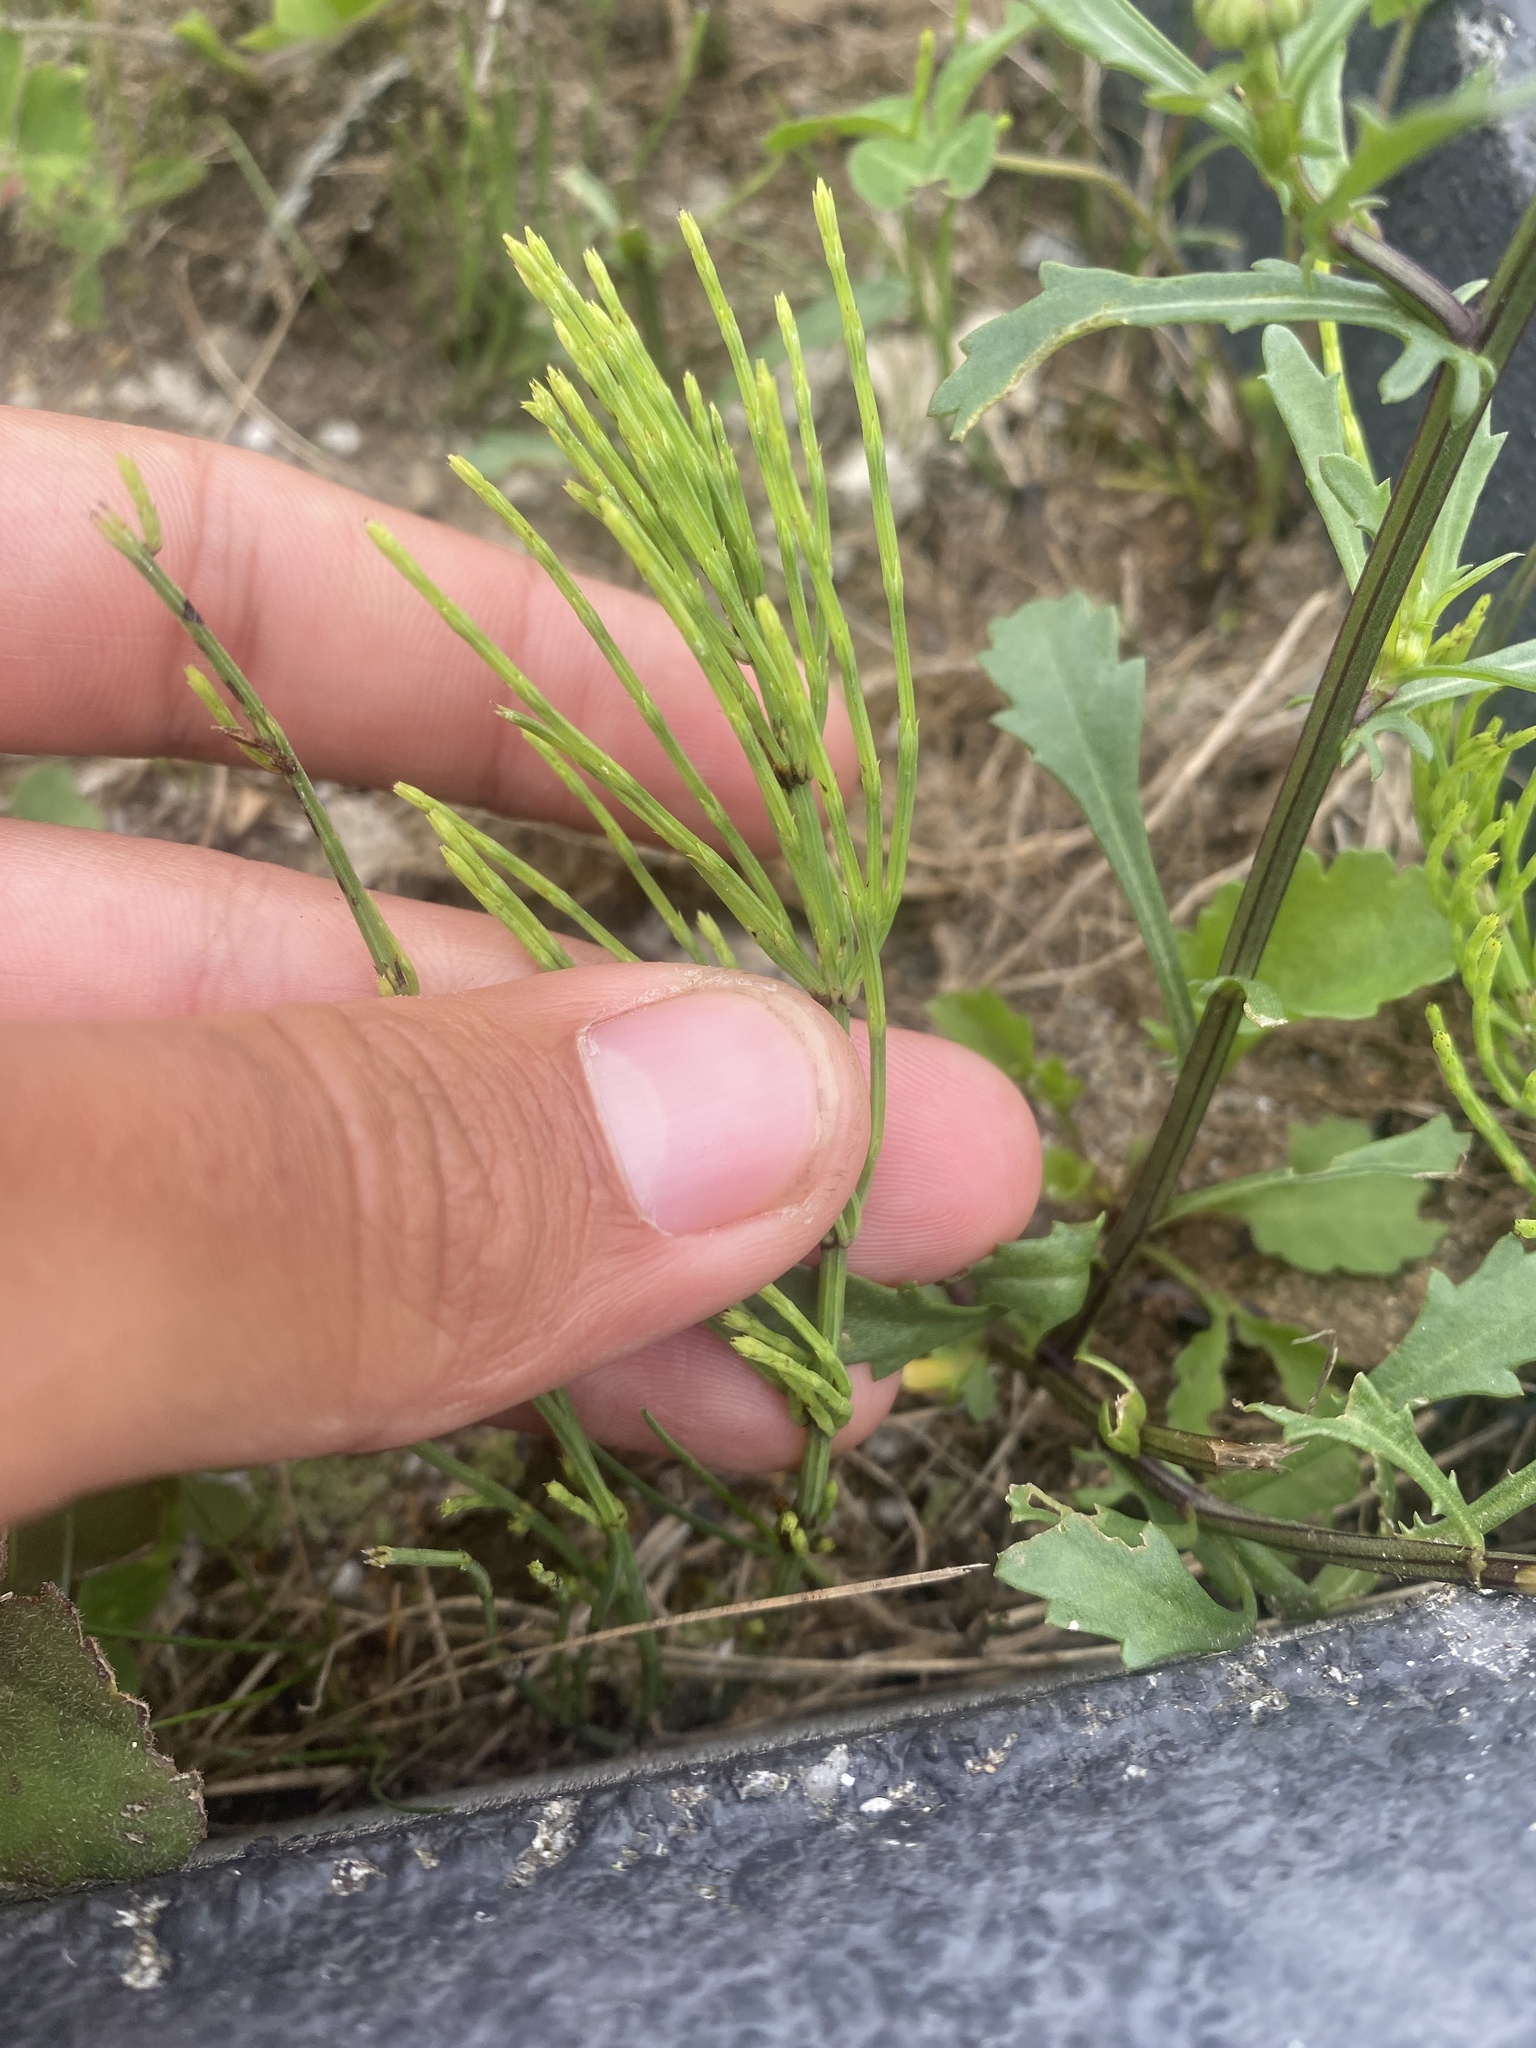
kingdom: Plantae
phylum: Tracheophyta
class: Polypodiopsida
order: Equisetales
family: Equisetaceae
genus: Equisetum
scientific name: Equisetum arvense
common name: Field horsetail
